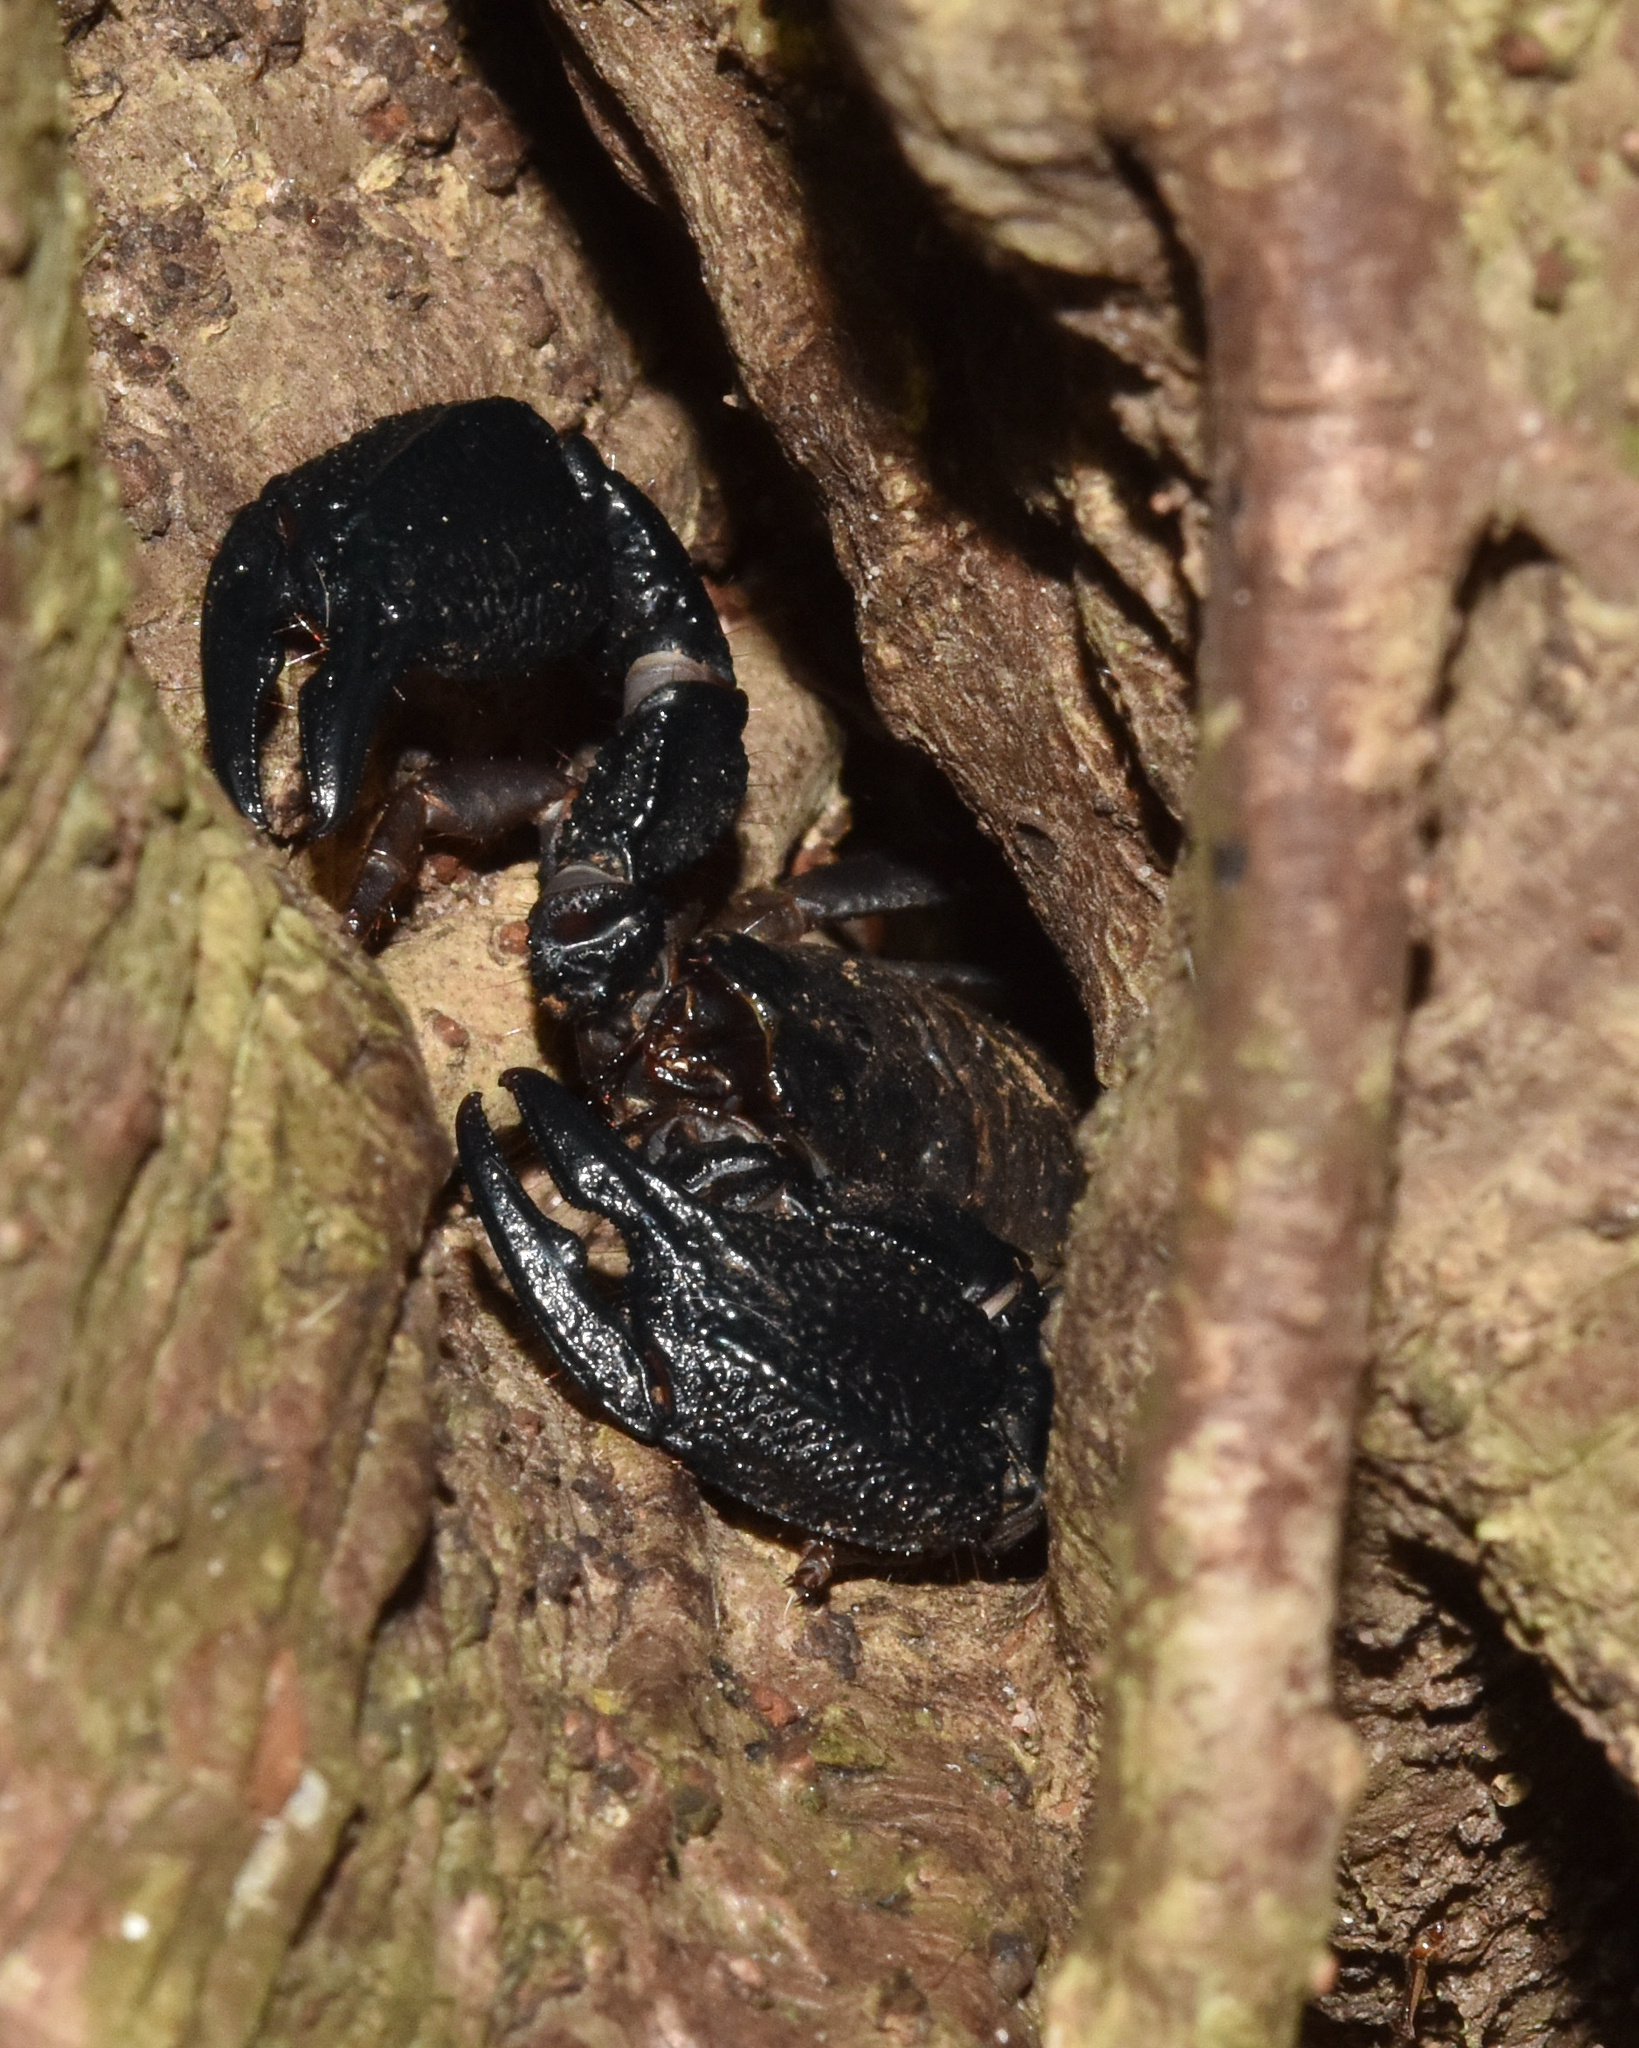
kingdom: Animalia
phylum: Arthropoda
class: Arachnida
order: Scorpiones
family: Hormuridae
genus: Opisthacanthus
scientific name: Opisthacanthus validus
